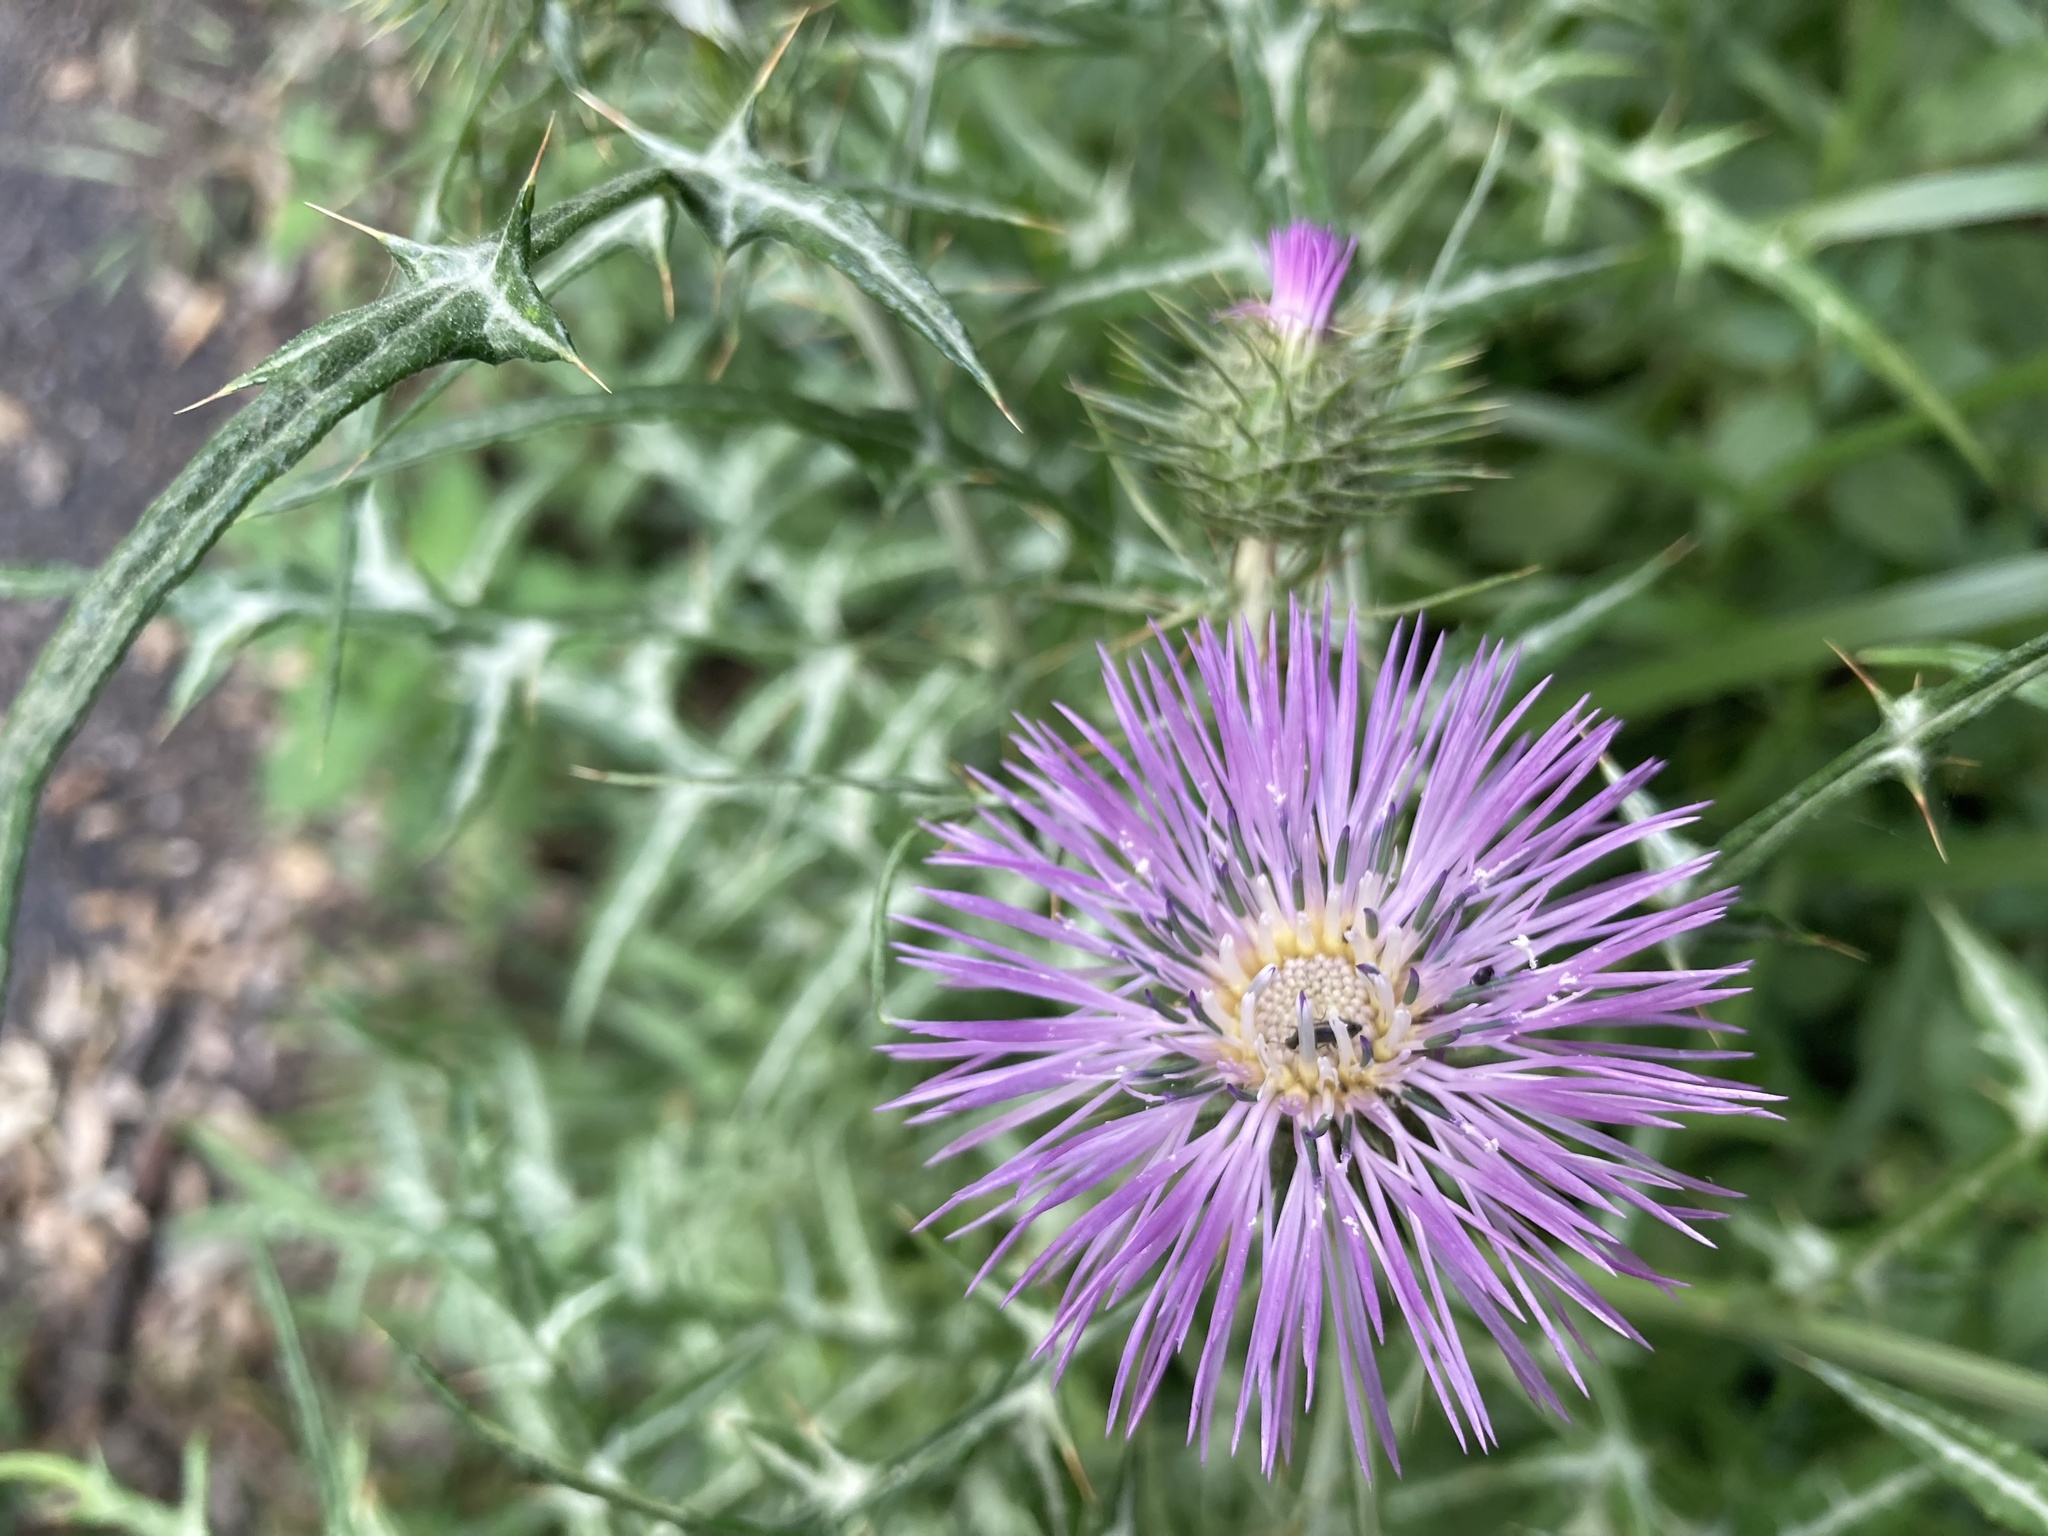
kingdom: Plantae
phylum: Tracheophyta
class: Magnoliopsida
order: Asterales
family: Asteraceae
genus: Galactites
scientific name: Galactites tomentosa
